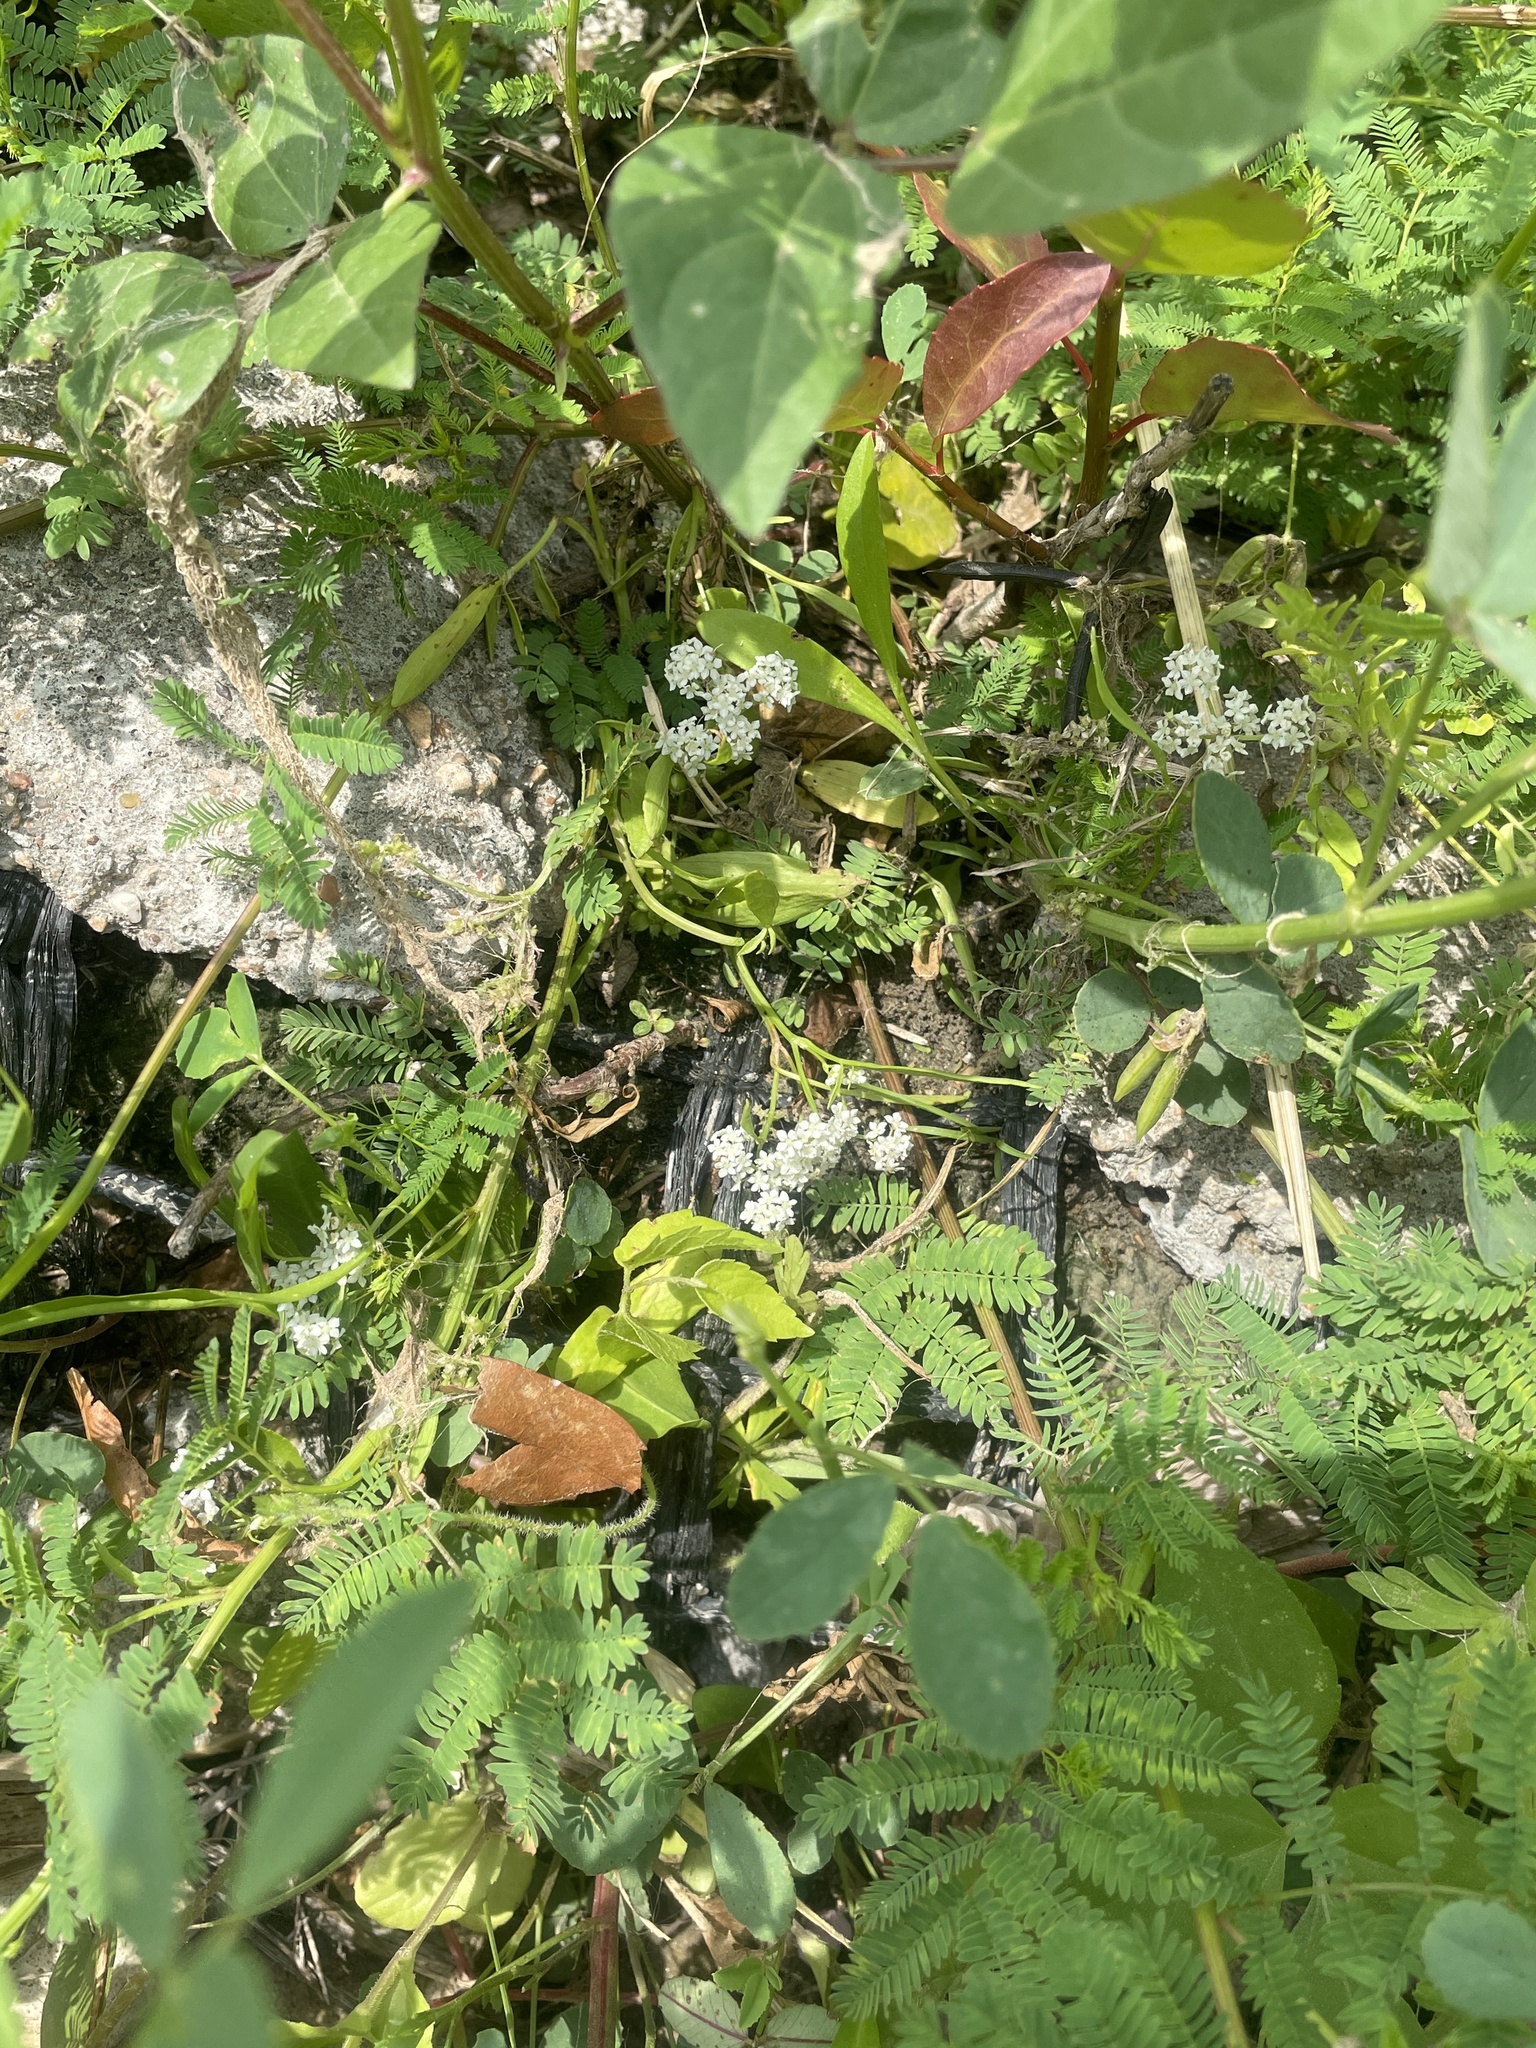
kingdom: Plantae
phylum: Tracheophyta
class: Magnoliopsida
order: Apiales
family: Apiaceae
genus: Limnosciadium
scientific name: Limnosciadium pinnatum
